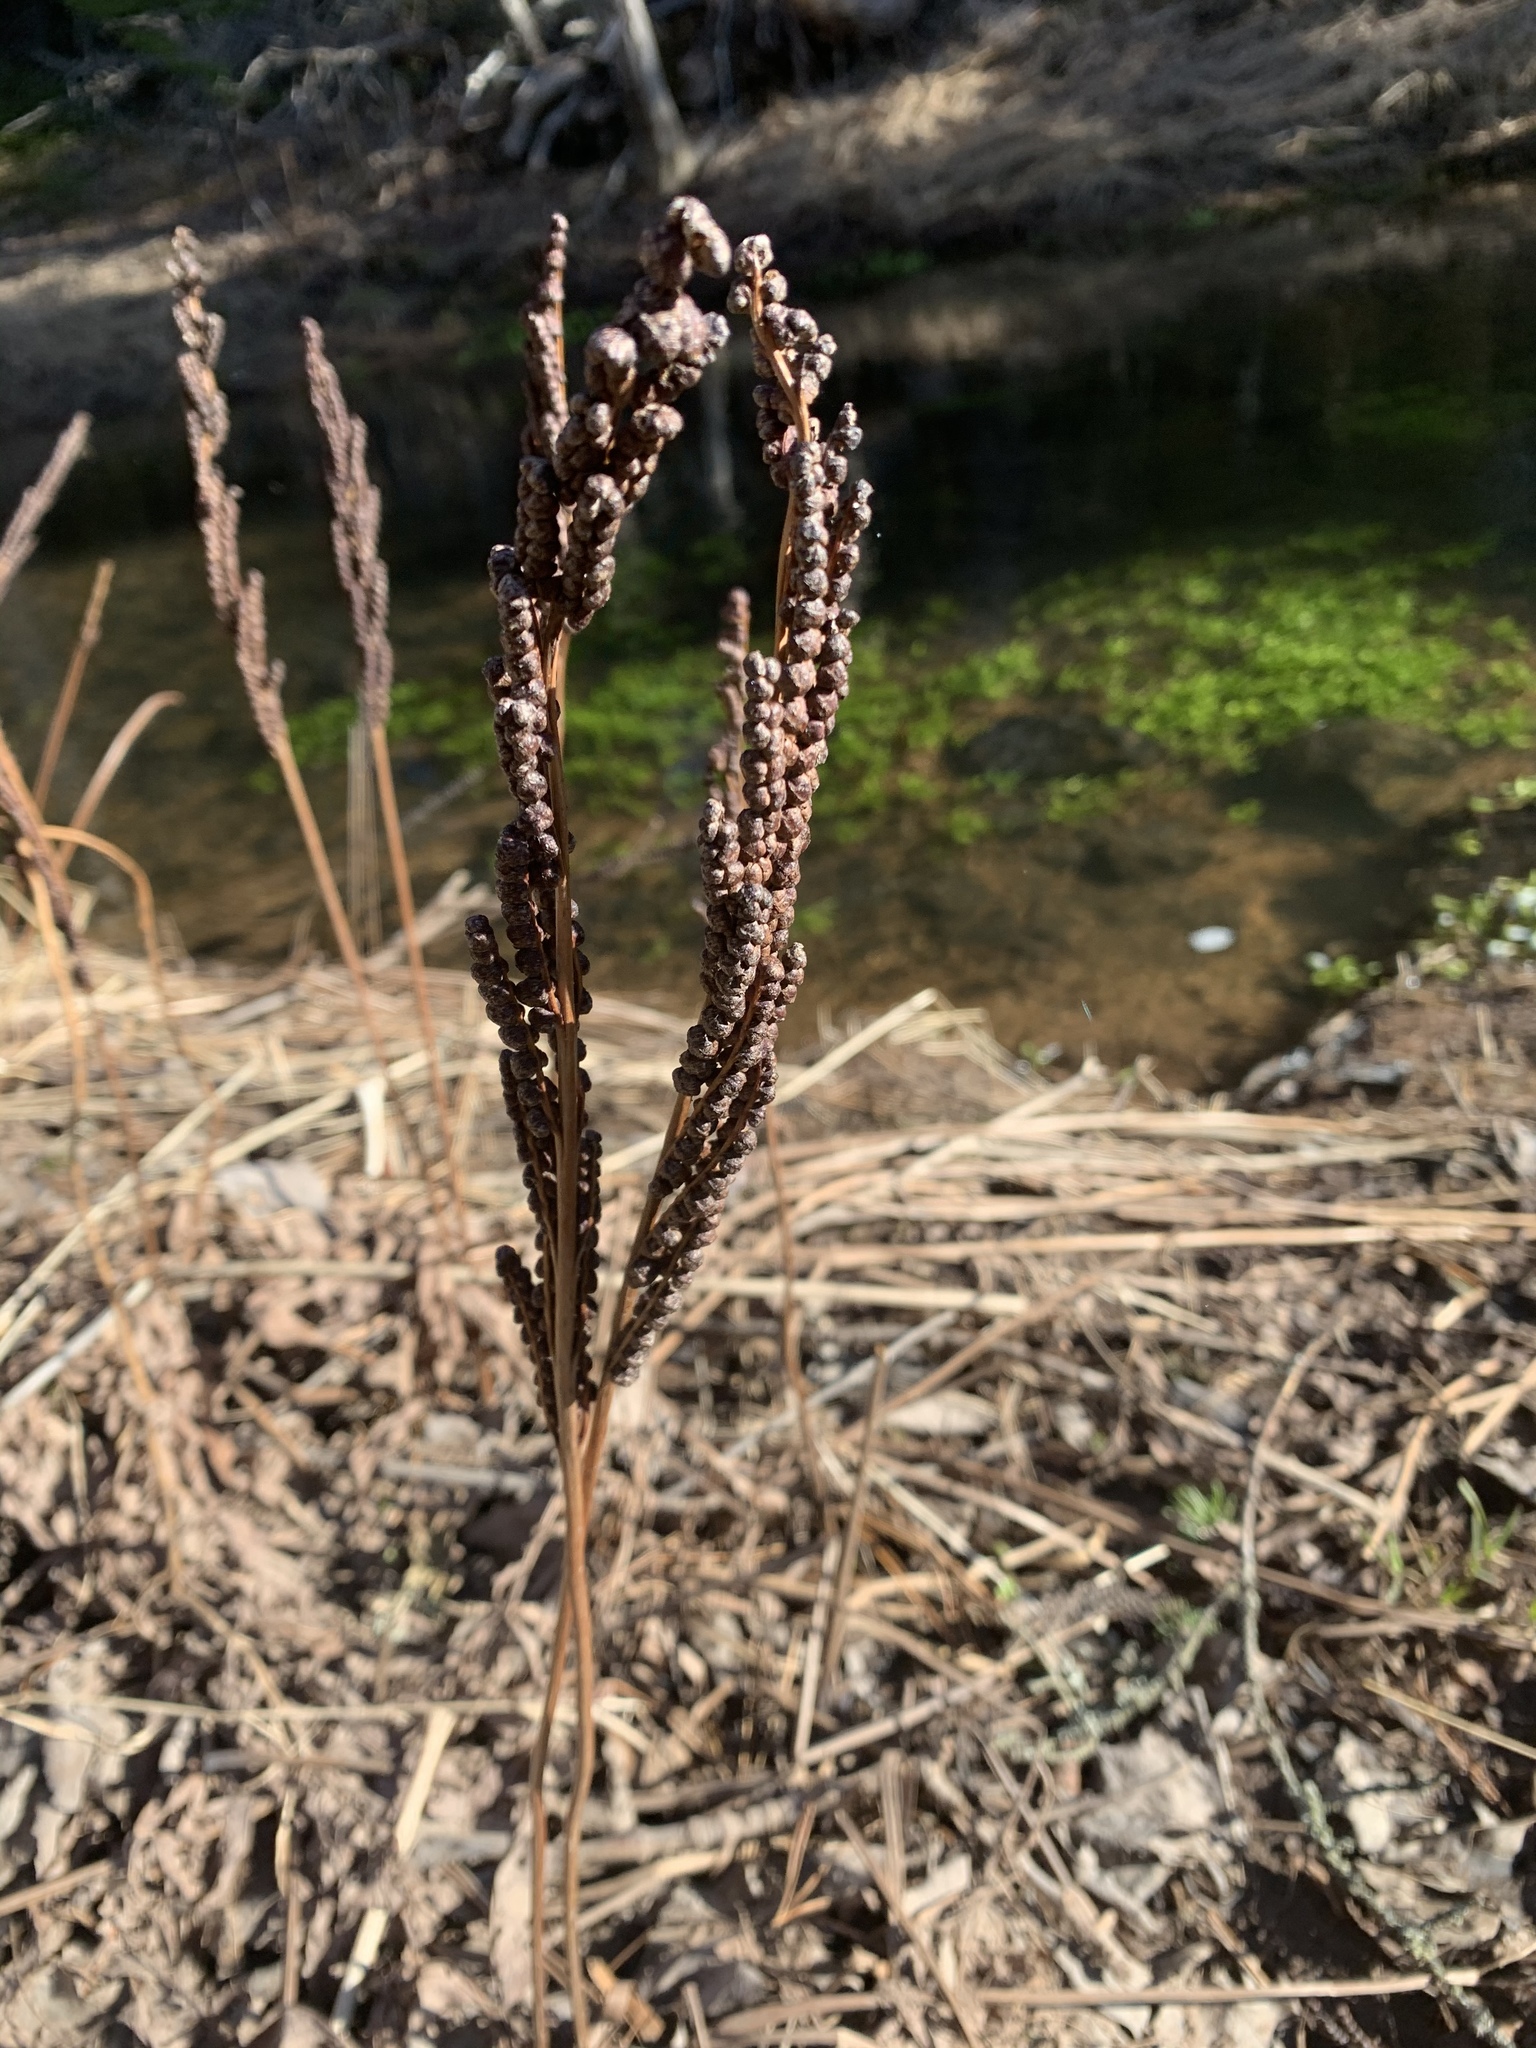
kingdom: Plantae
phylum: Tracheophyta
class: Polypodiopsida
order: Polypodiales
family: Onocleaceae
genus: Onoclea
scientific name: Onoclea sensibilis
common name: Sensitive fern
